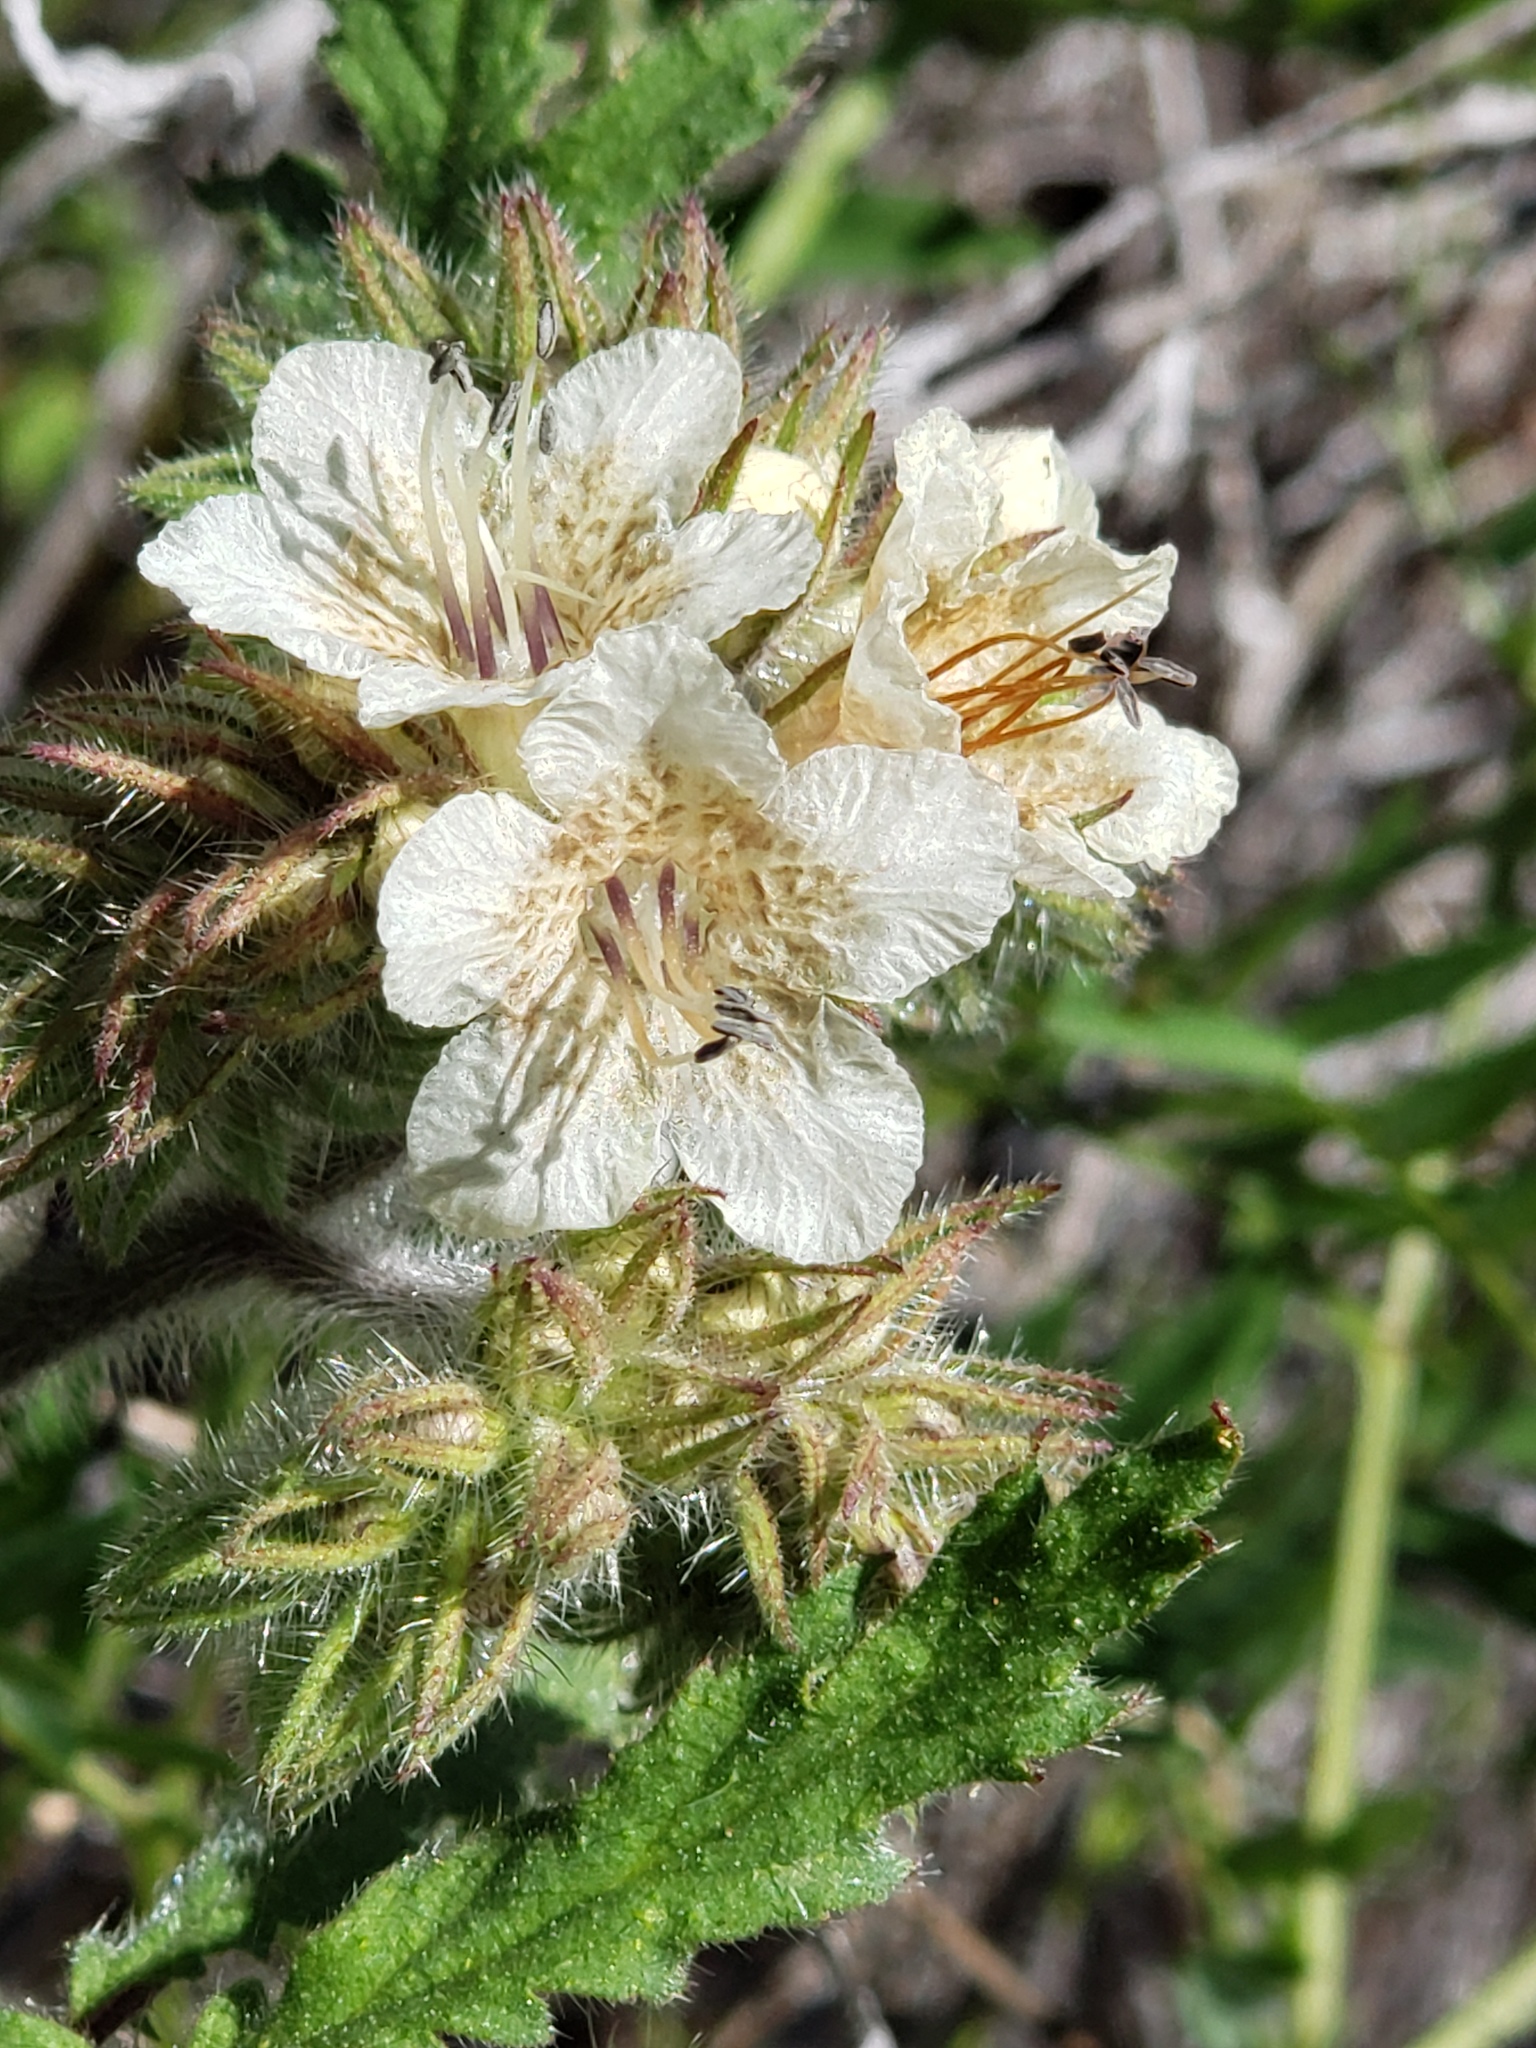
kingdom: Plantae
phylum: Tracheophyta
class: Magnoliopsida
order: Boraginales
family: Hydrophyllaceae
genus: Phacelia
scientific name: Phacelia cicutaria
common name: Caterpillar phacelia
